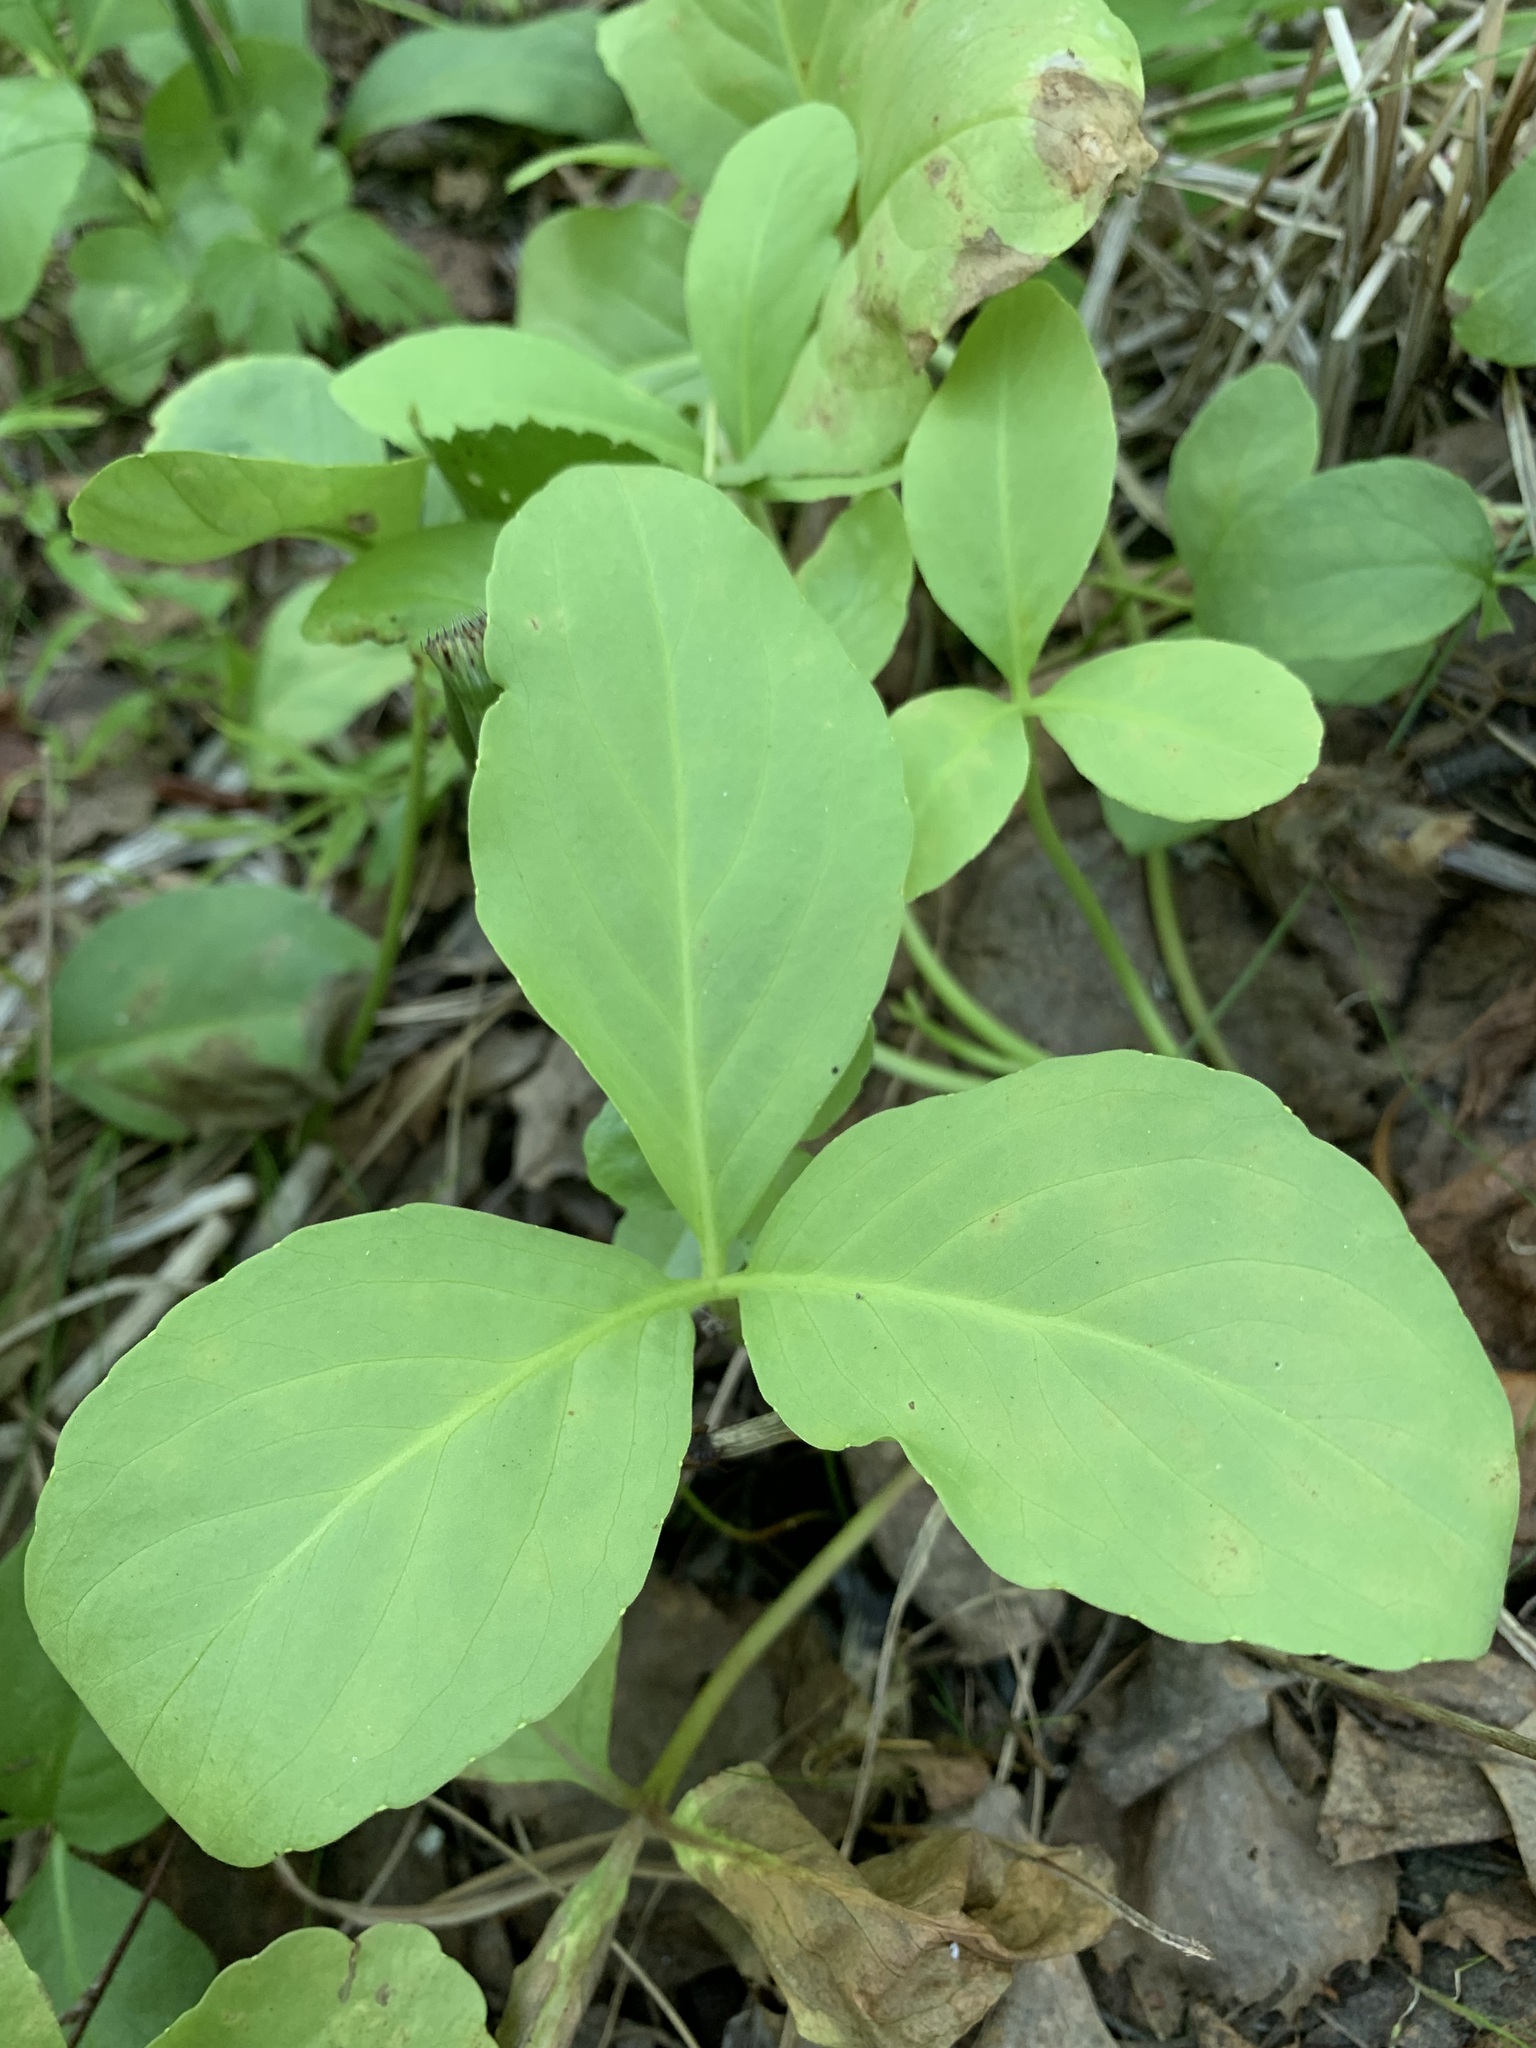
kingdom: Plantae
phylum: Tracheophyta
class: Magnoliopsida
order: Asterales
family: Menyanthaceae
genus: Menyanthes
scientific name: Menyanthes trifoliata
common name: Bogbean
